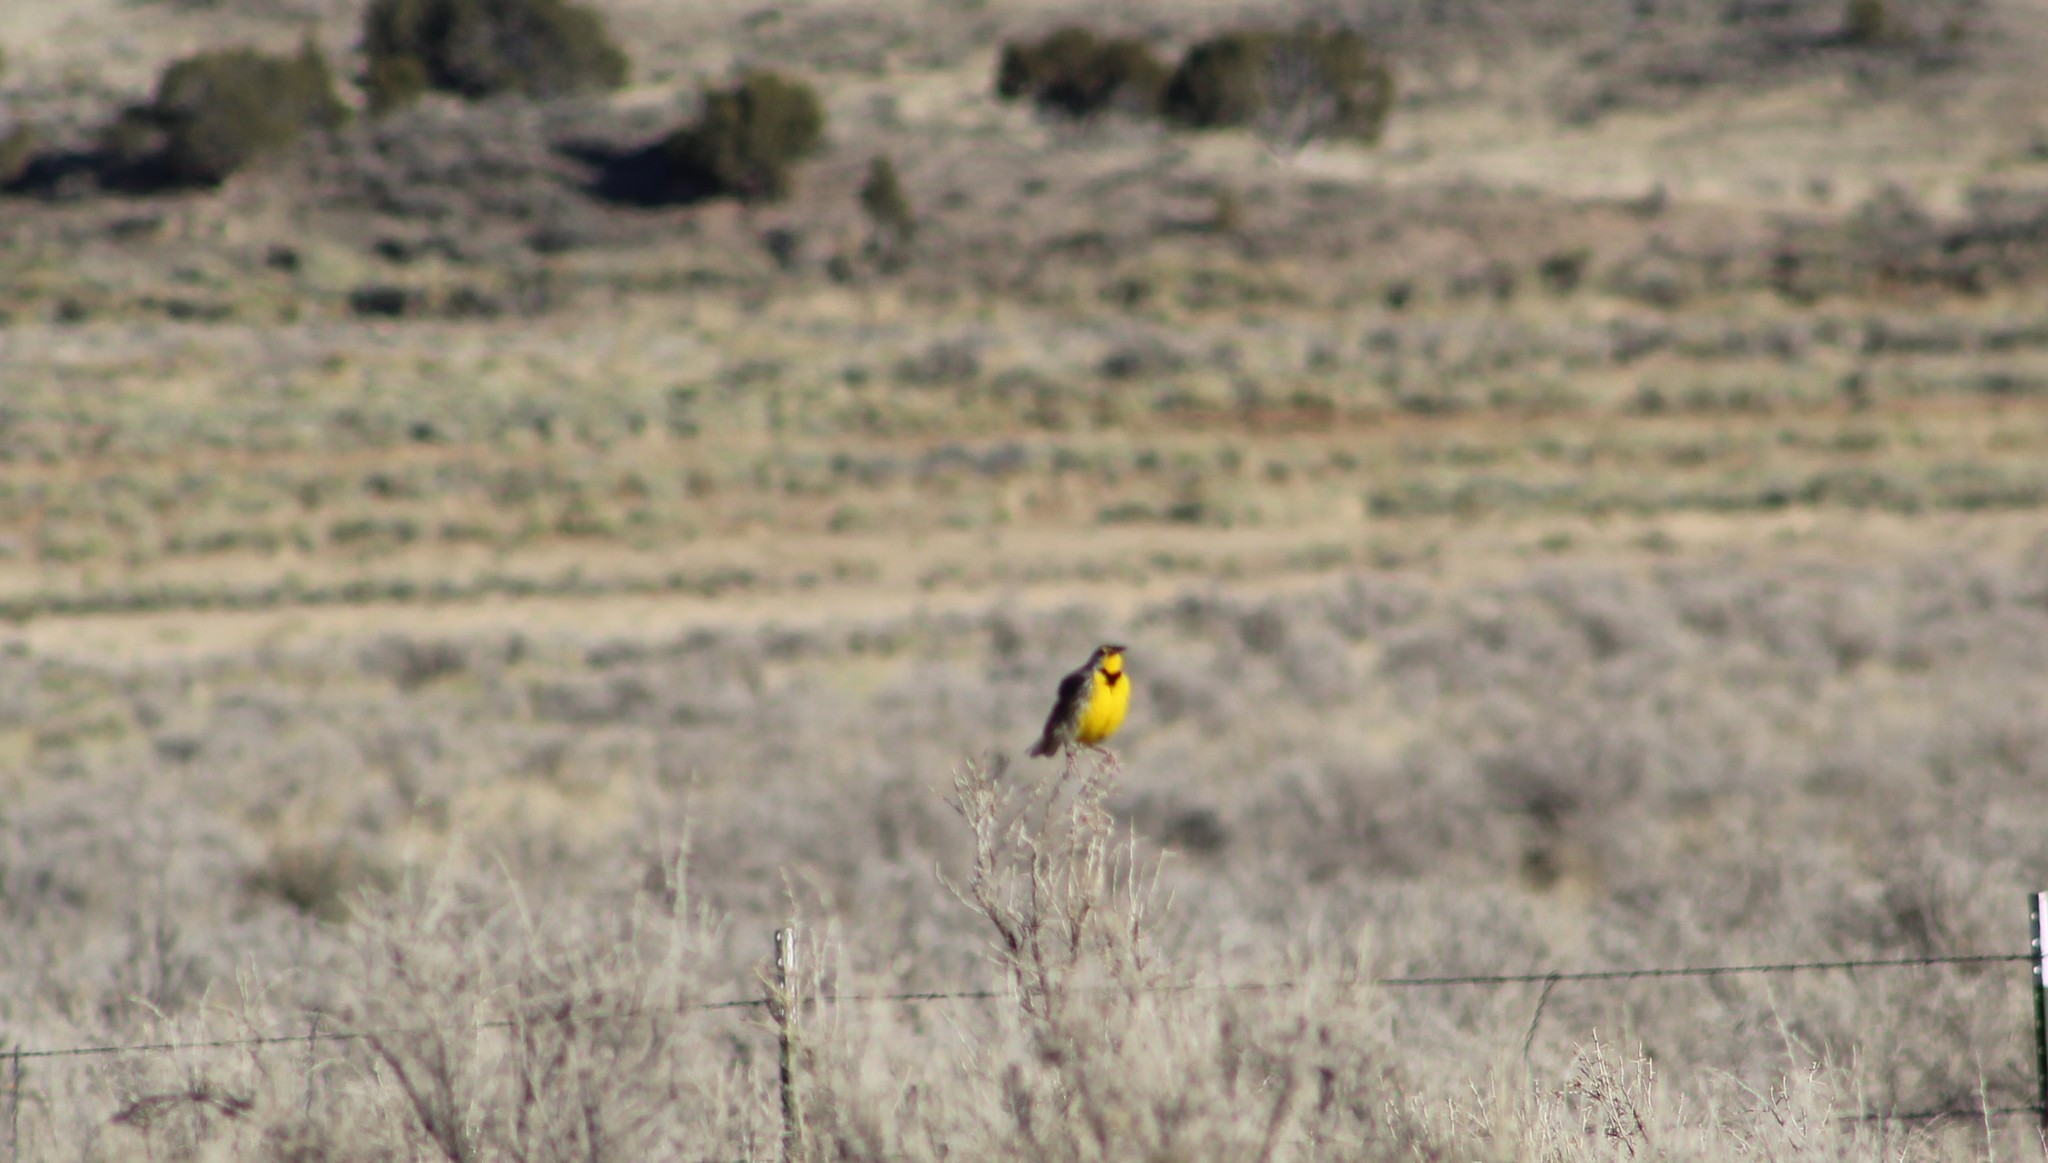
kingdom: Animalia
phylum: Chordata
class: Aves
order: Passeriformes
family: Icteridae
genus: Sturnella
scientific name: Sturnella neglecta
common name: Western meadowlark
